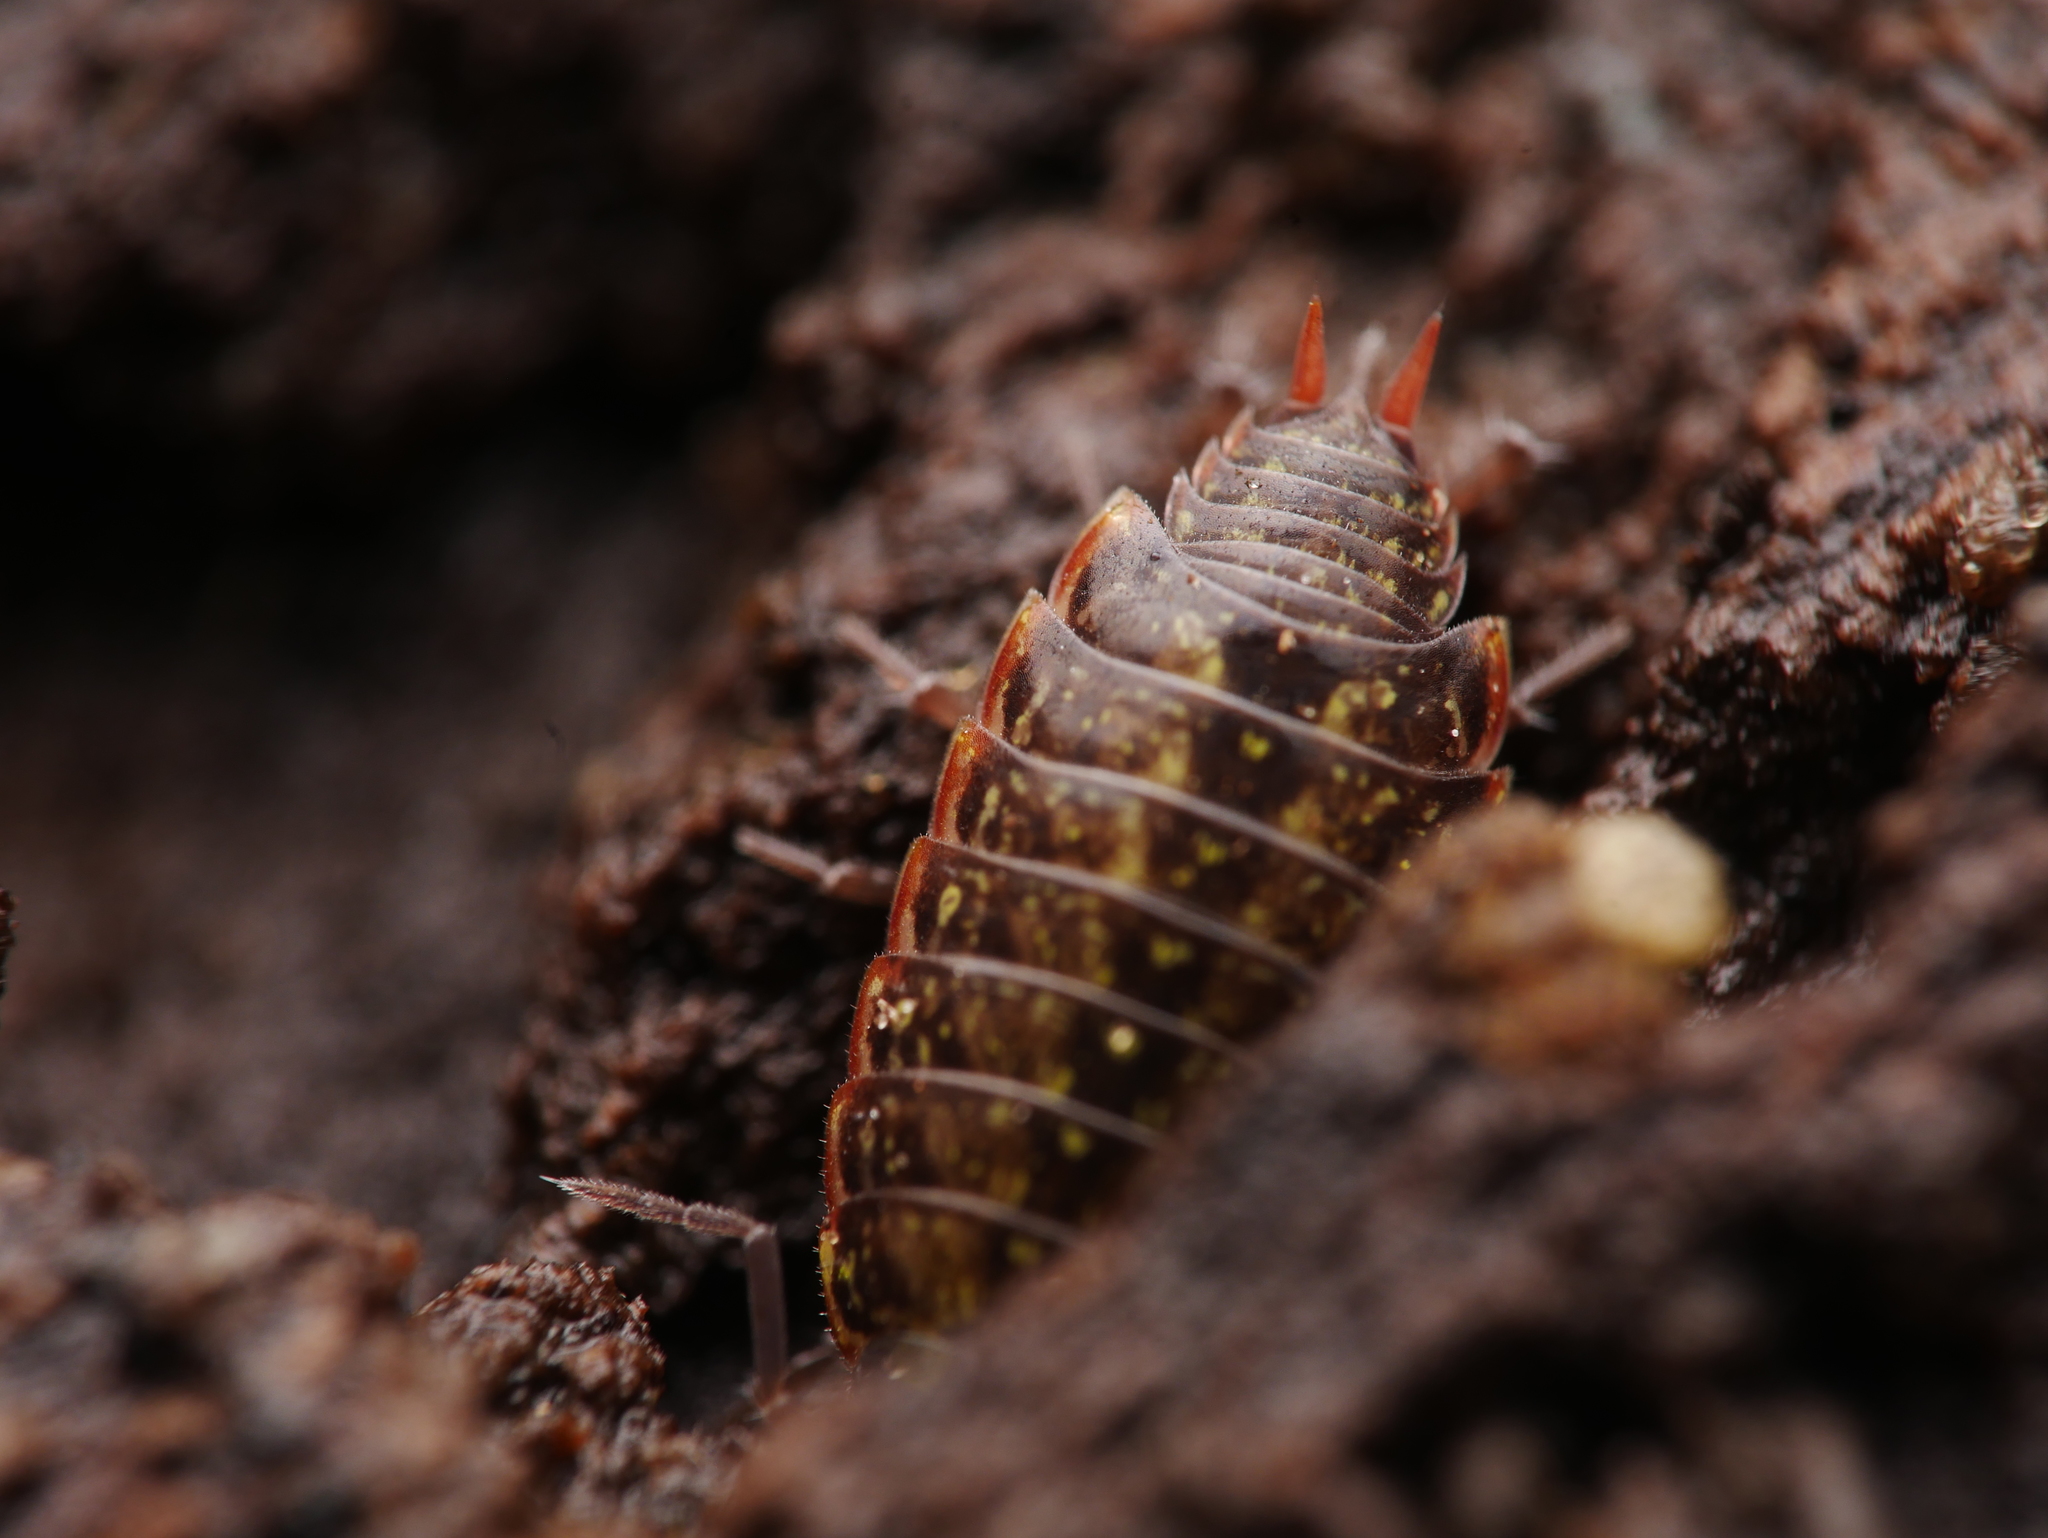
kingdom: Animalia
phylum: Arthropoda
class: Malacostraca
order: Isopoda
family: Philosciidae
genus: Philoscia
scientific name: Philoscia muscorum
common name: Common striped woodlouse
